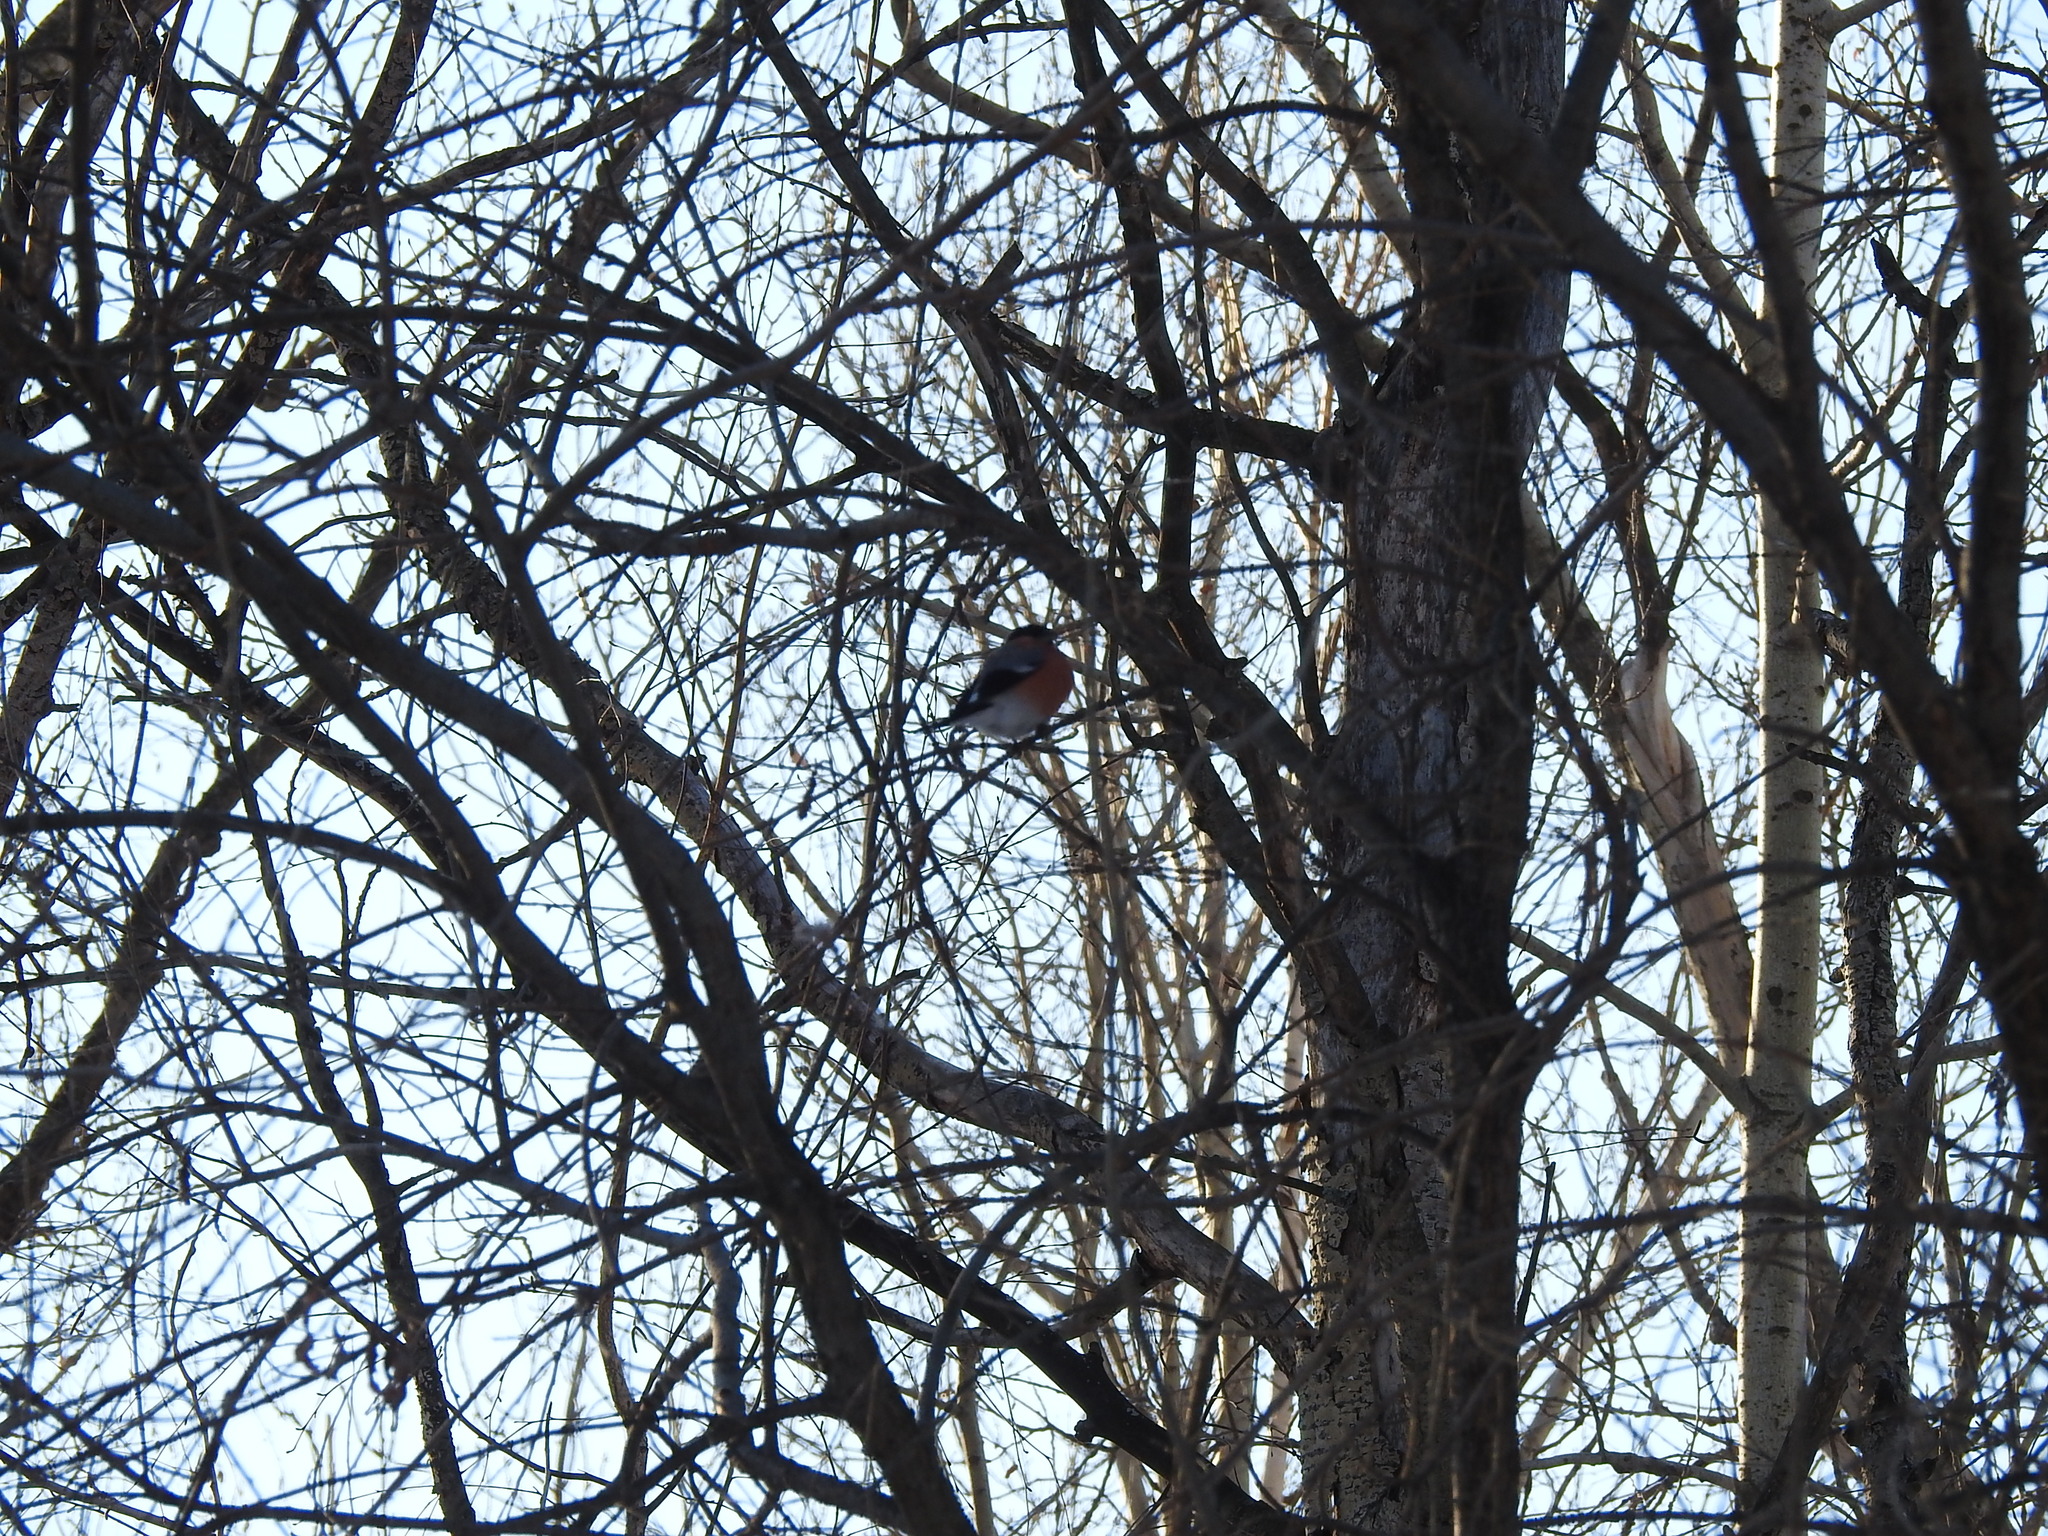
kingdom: Animalia
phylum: Chordata
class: Aves
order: Passeriformes
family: Fringillidae
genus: Pyrrhula
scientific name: Pyrrhula pyrrhula
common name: Eurasian bullfinch
